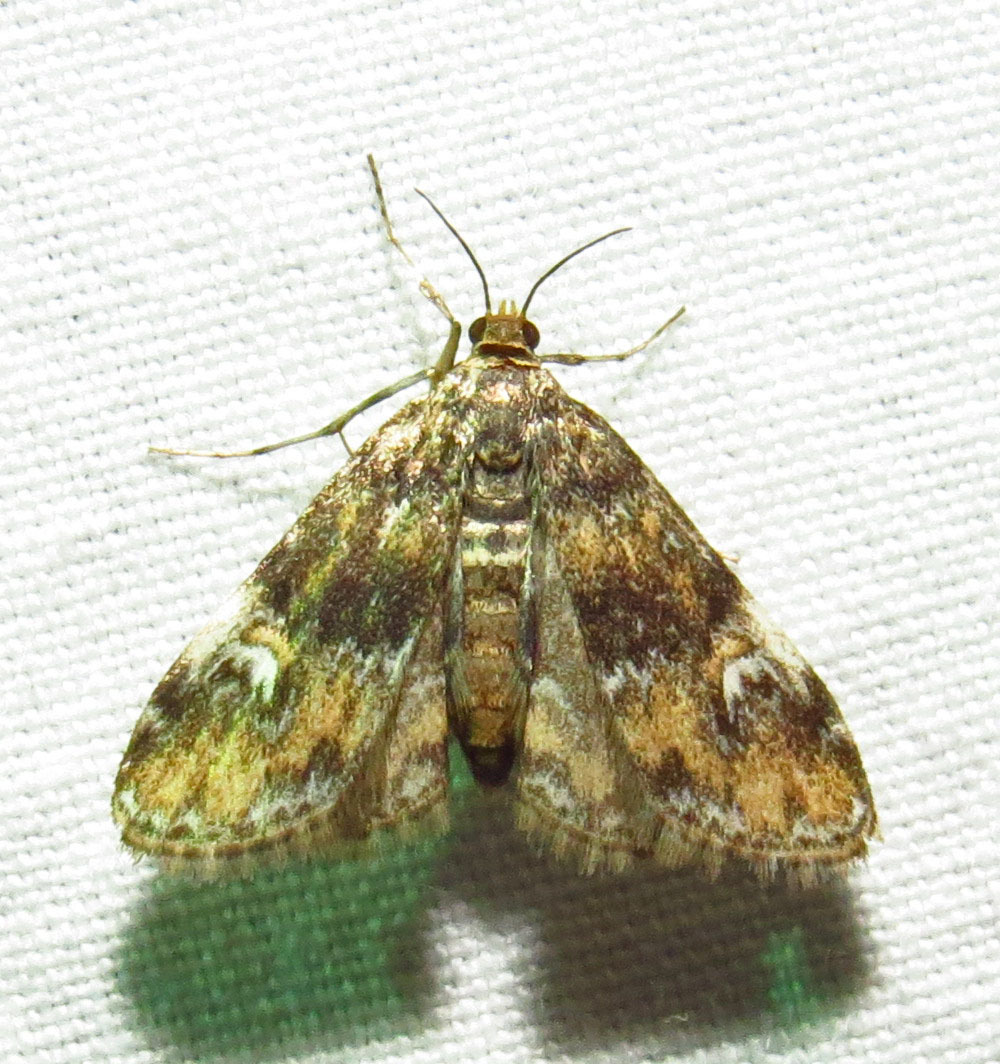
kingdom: Animalia
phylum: Arthropoda
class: Insecta
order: Lepidoptera
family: Crambidae
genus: Elophila
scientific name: Elophila obliteralis
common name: Waterlily leafcutter moth
